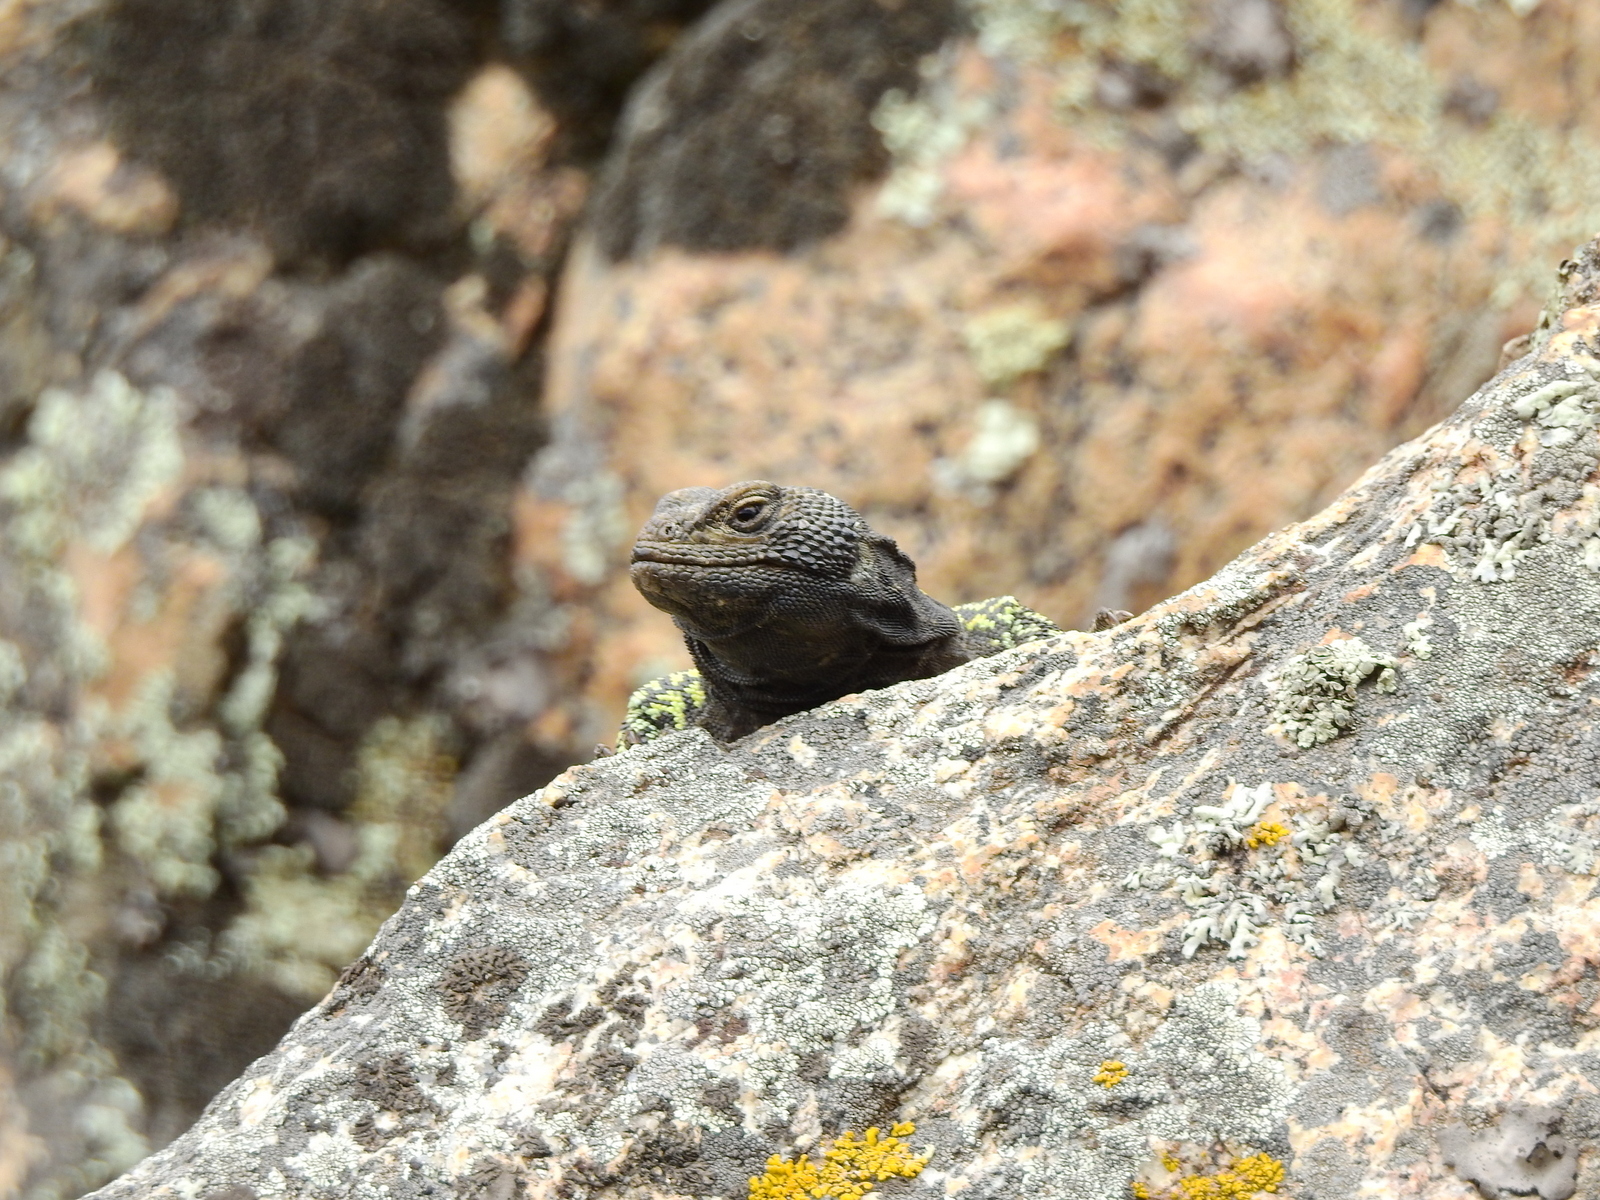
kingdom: Animalia
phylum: Chordata
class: Squamata
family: Liolaemidae
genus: Phymaturus
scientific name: Phymaturus palluma
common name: High mountain lizard
